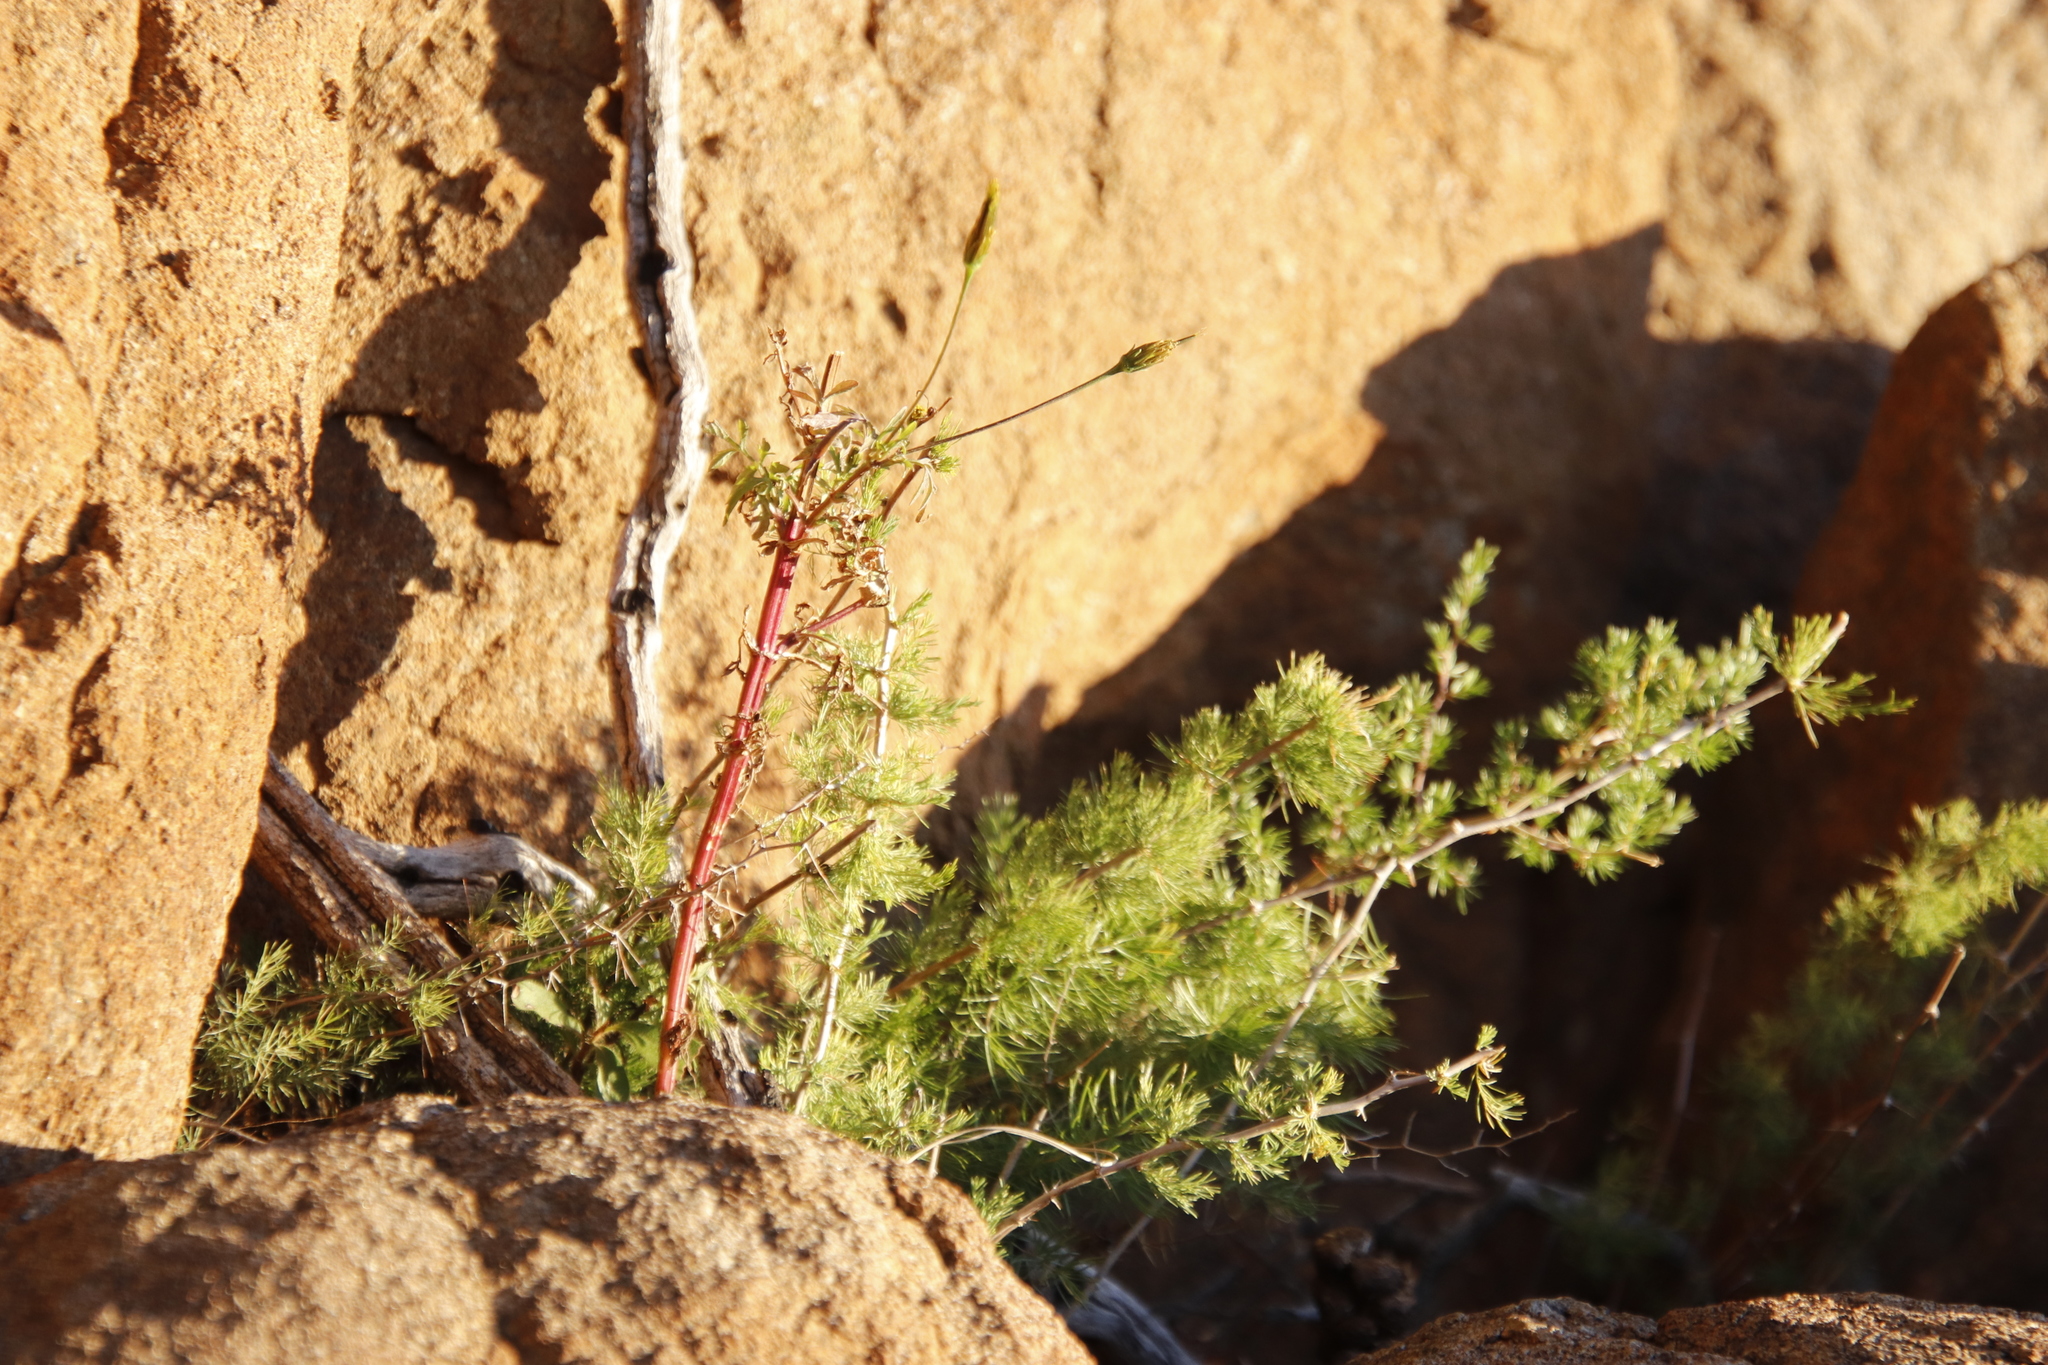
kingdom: Plantae
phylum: Tracheophyta
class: Magnoliopsida
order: Asterales
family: Asteraceae
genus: Tagetes
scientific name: Tagetes minuta
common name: Muster john henry
